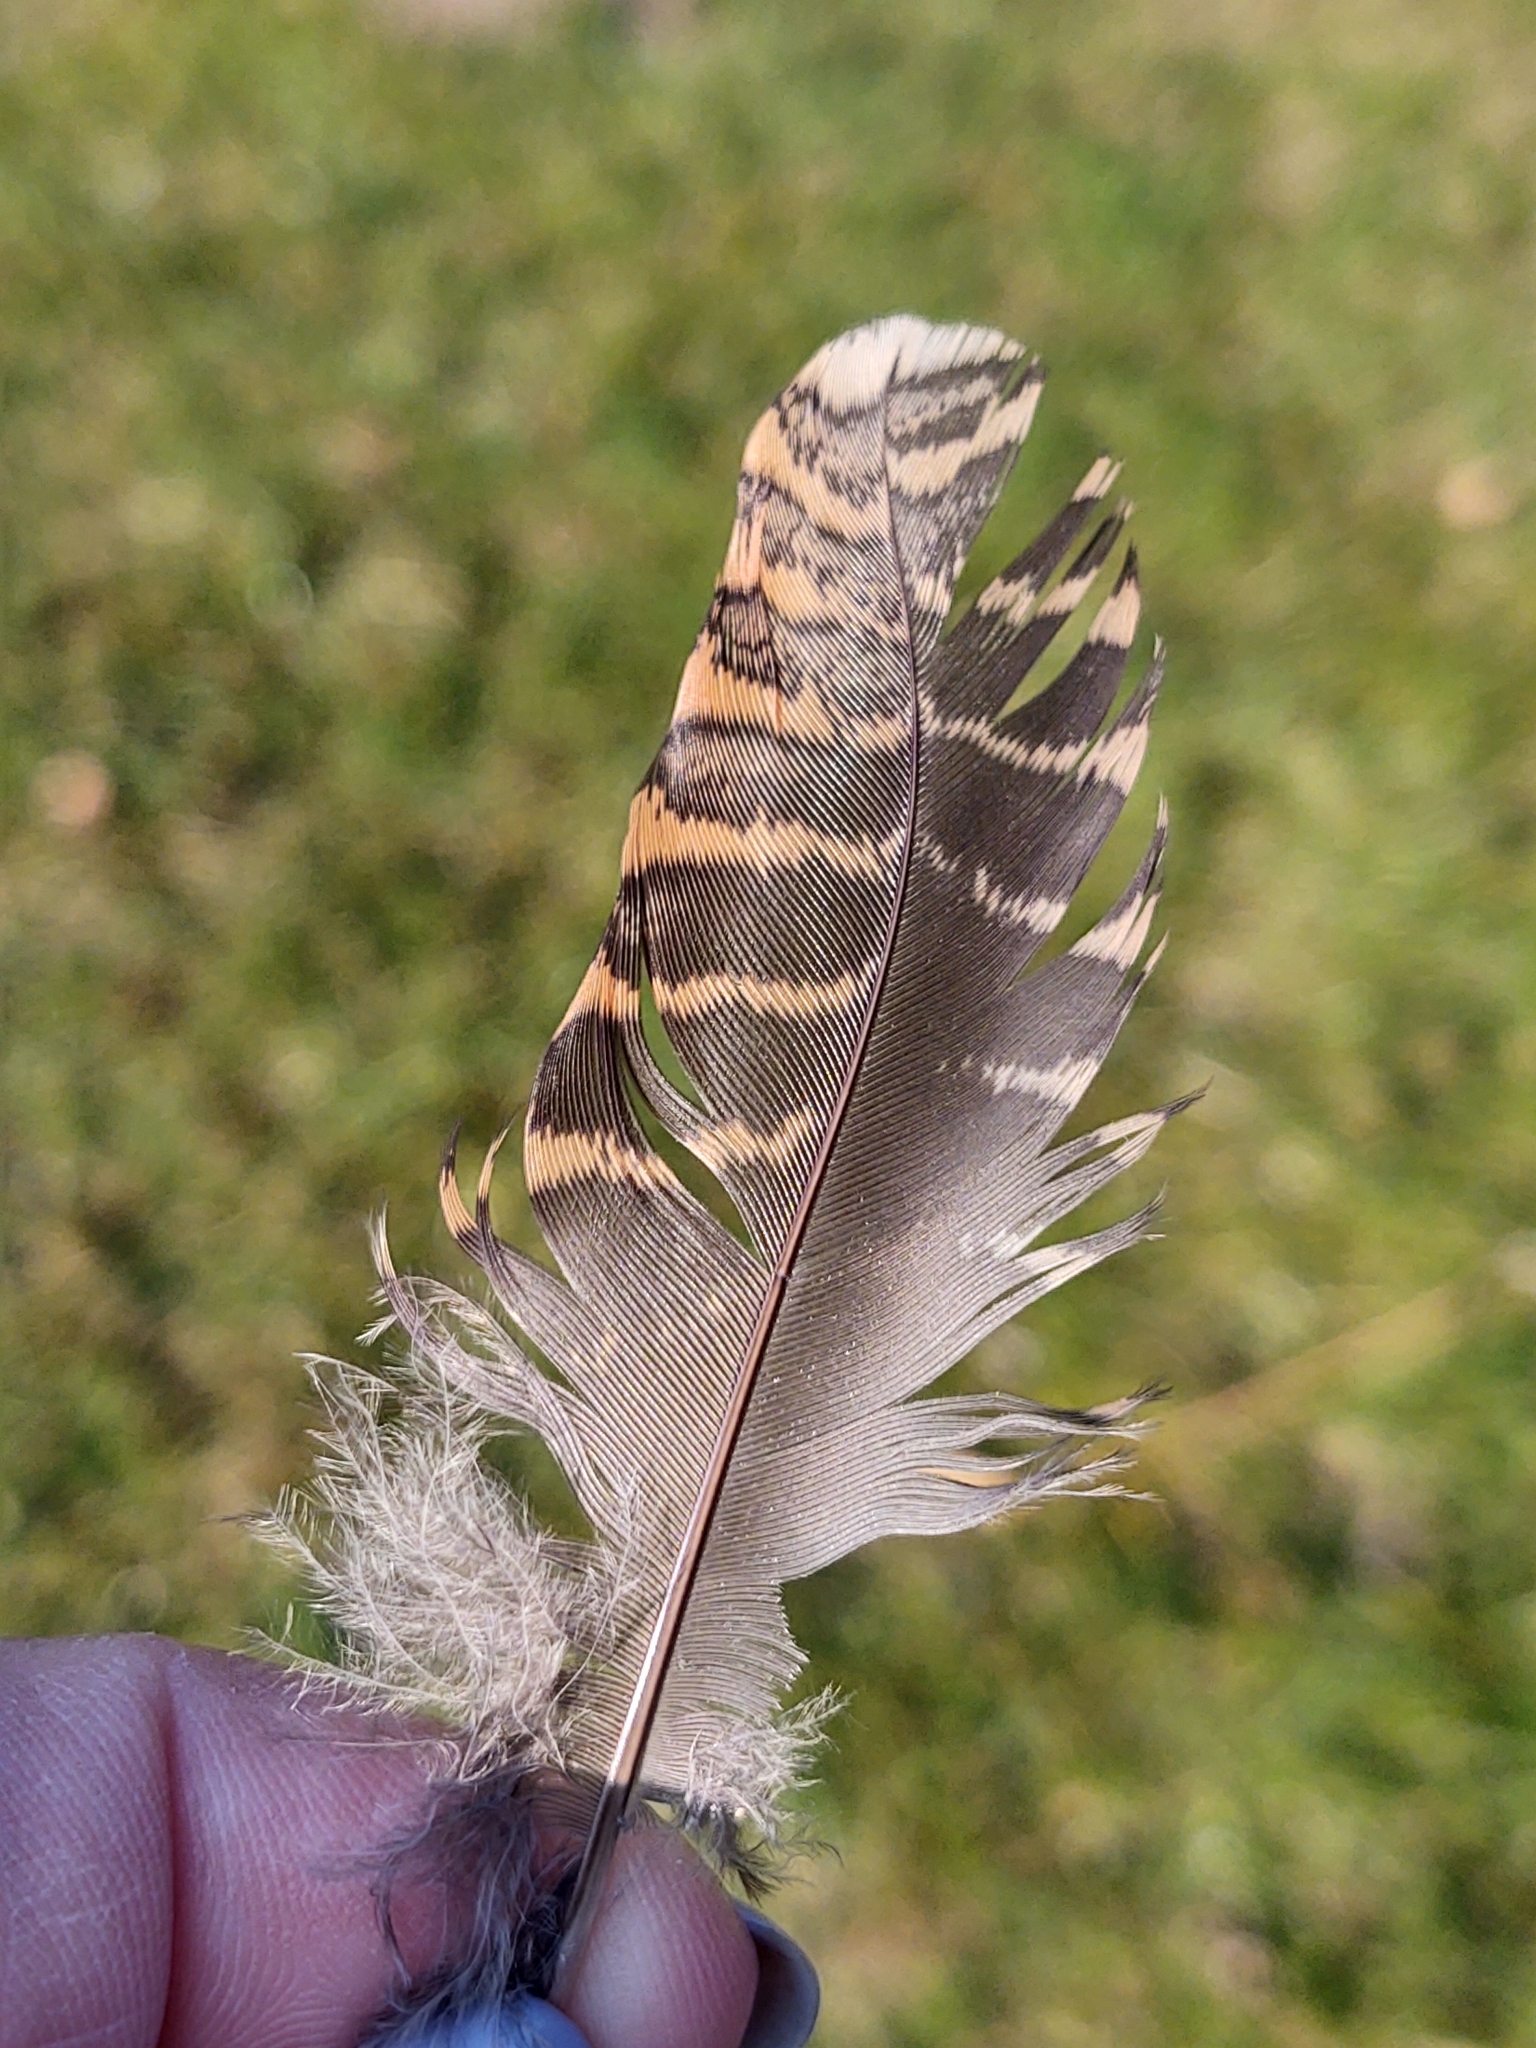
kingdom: Animalia
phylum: Chordata
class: Aves
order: Charadriiformes
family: Scolopacidae
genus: Scolopax
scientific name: Scolopax rusticola
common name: Eurasian woodcock
